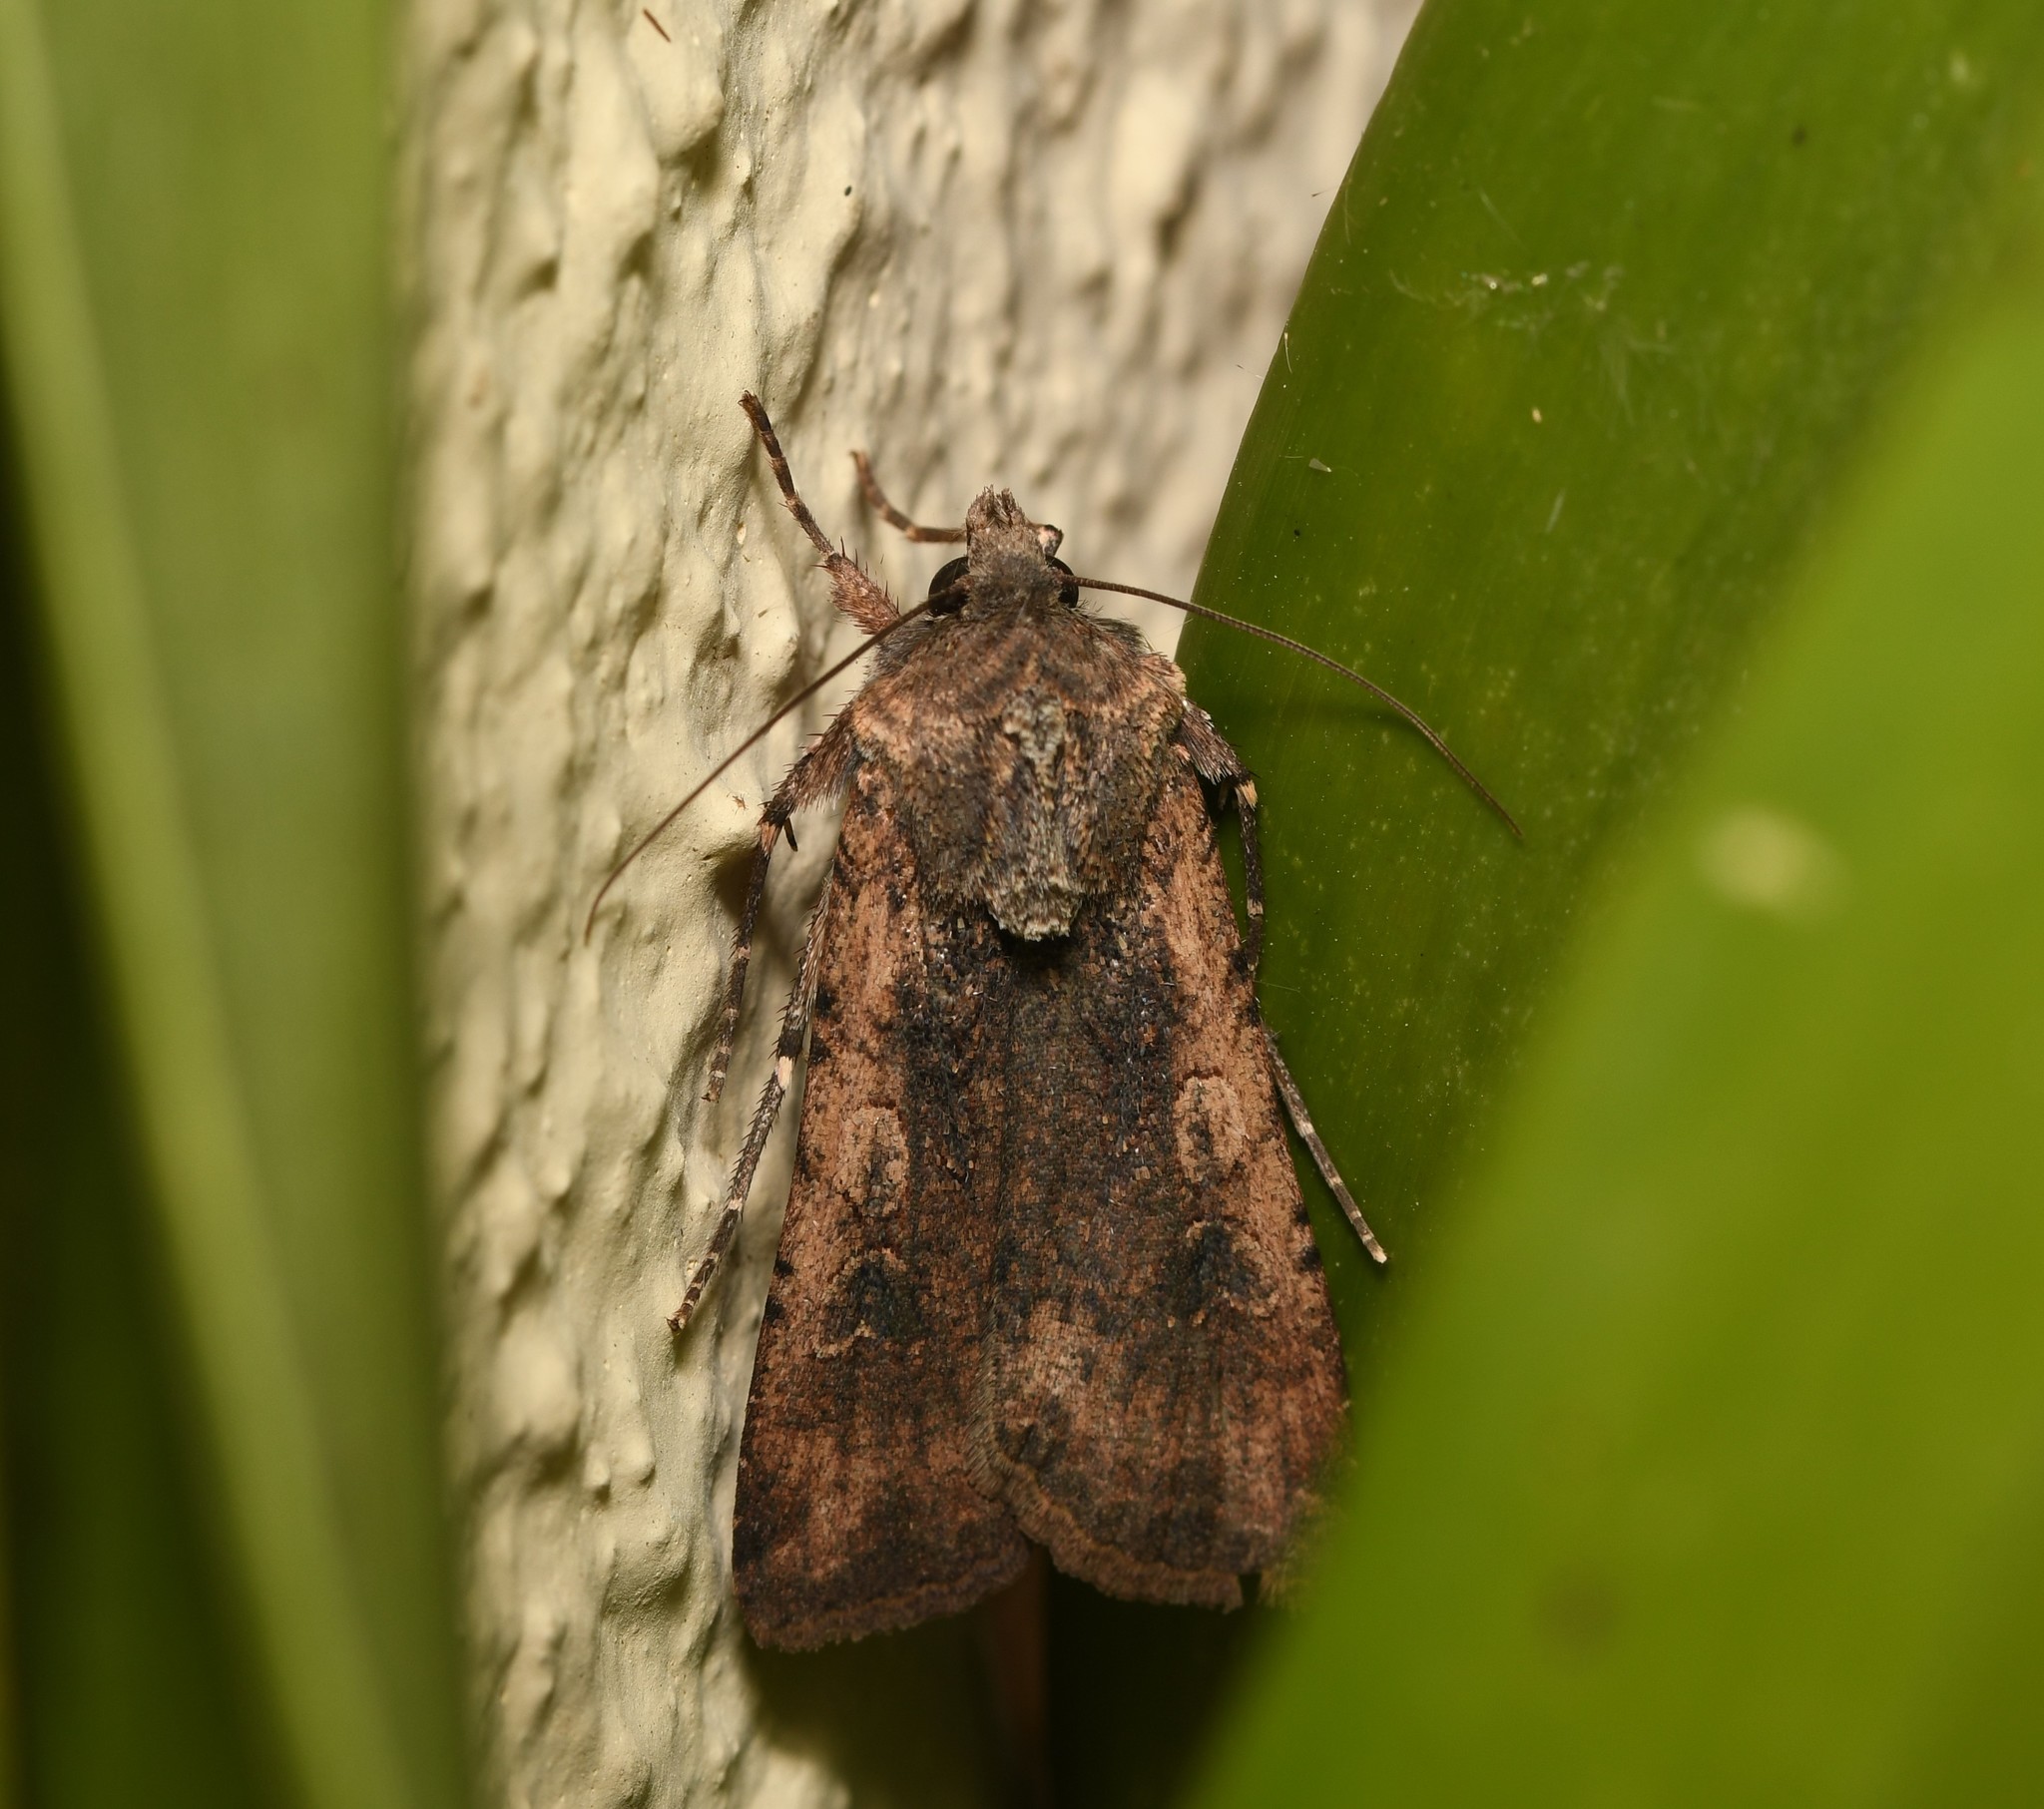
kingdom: Animalia
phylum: Arthropoda
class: Insecta
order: Lepidoptera
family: Noctuidae
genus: Peridroma
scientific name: Peridroma saucia
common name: Pearly underwing
